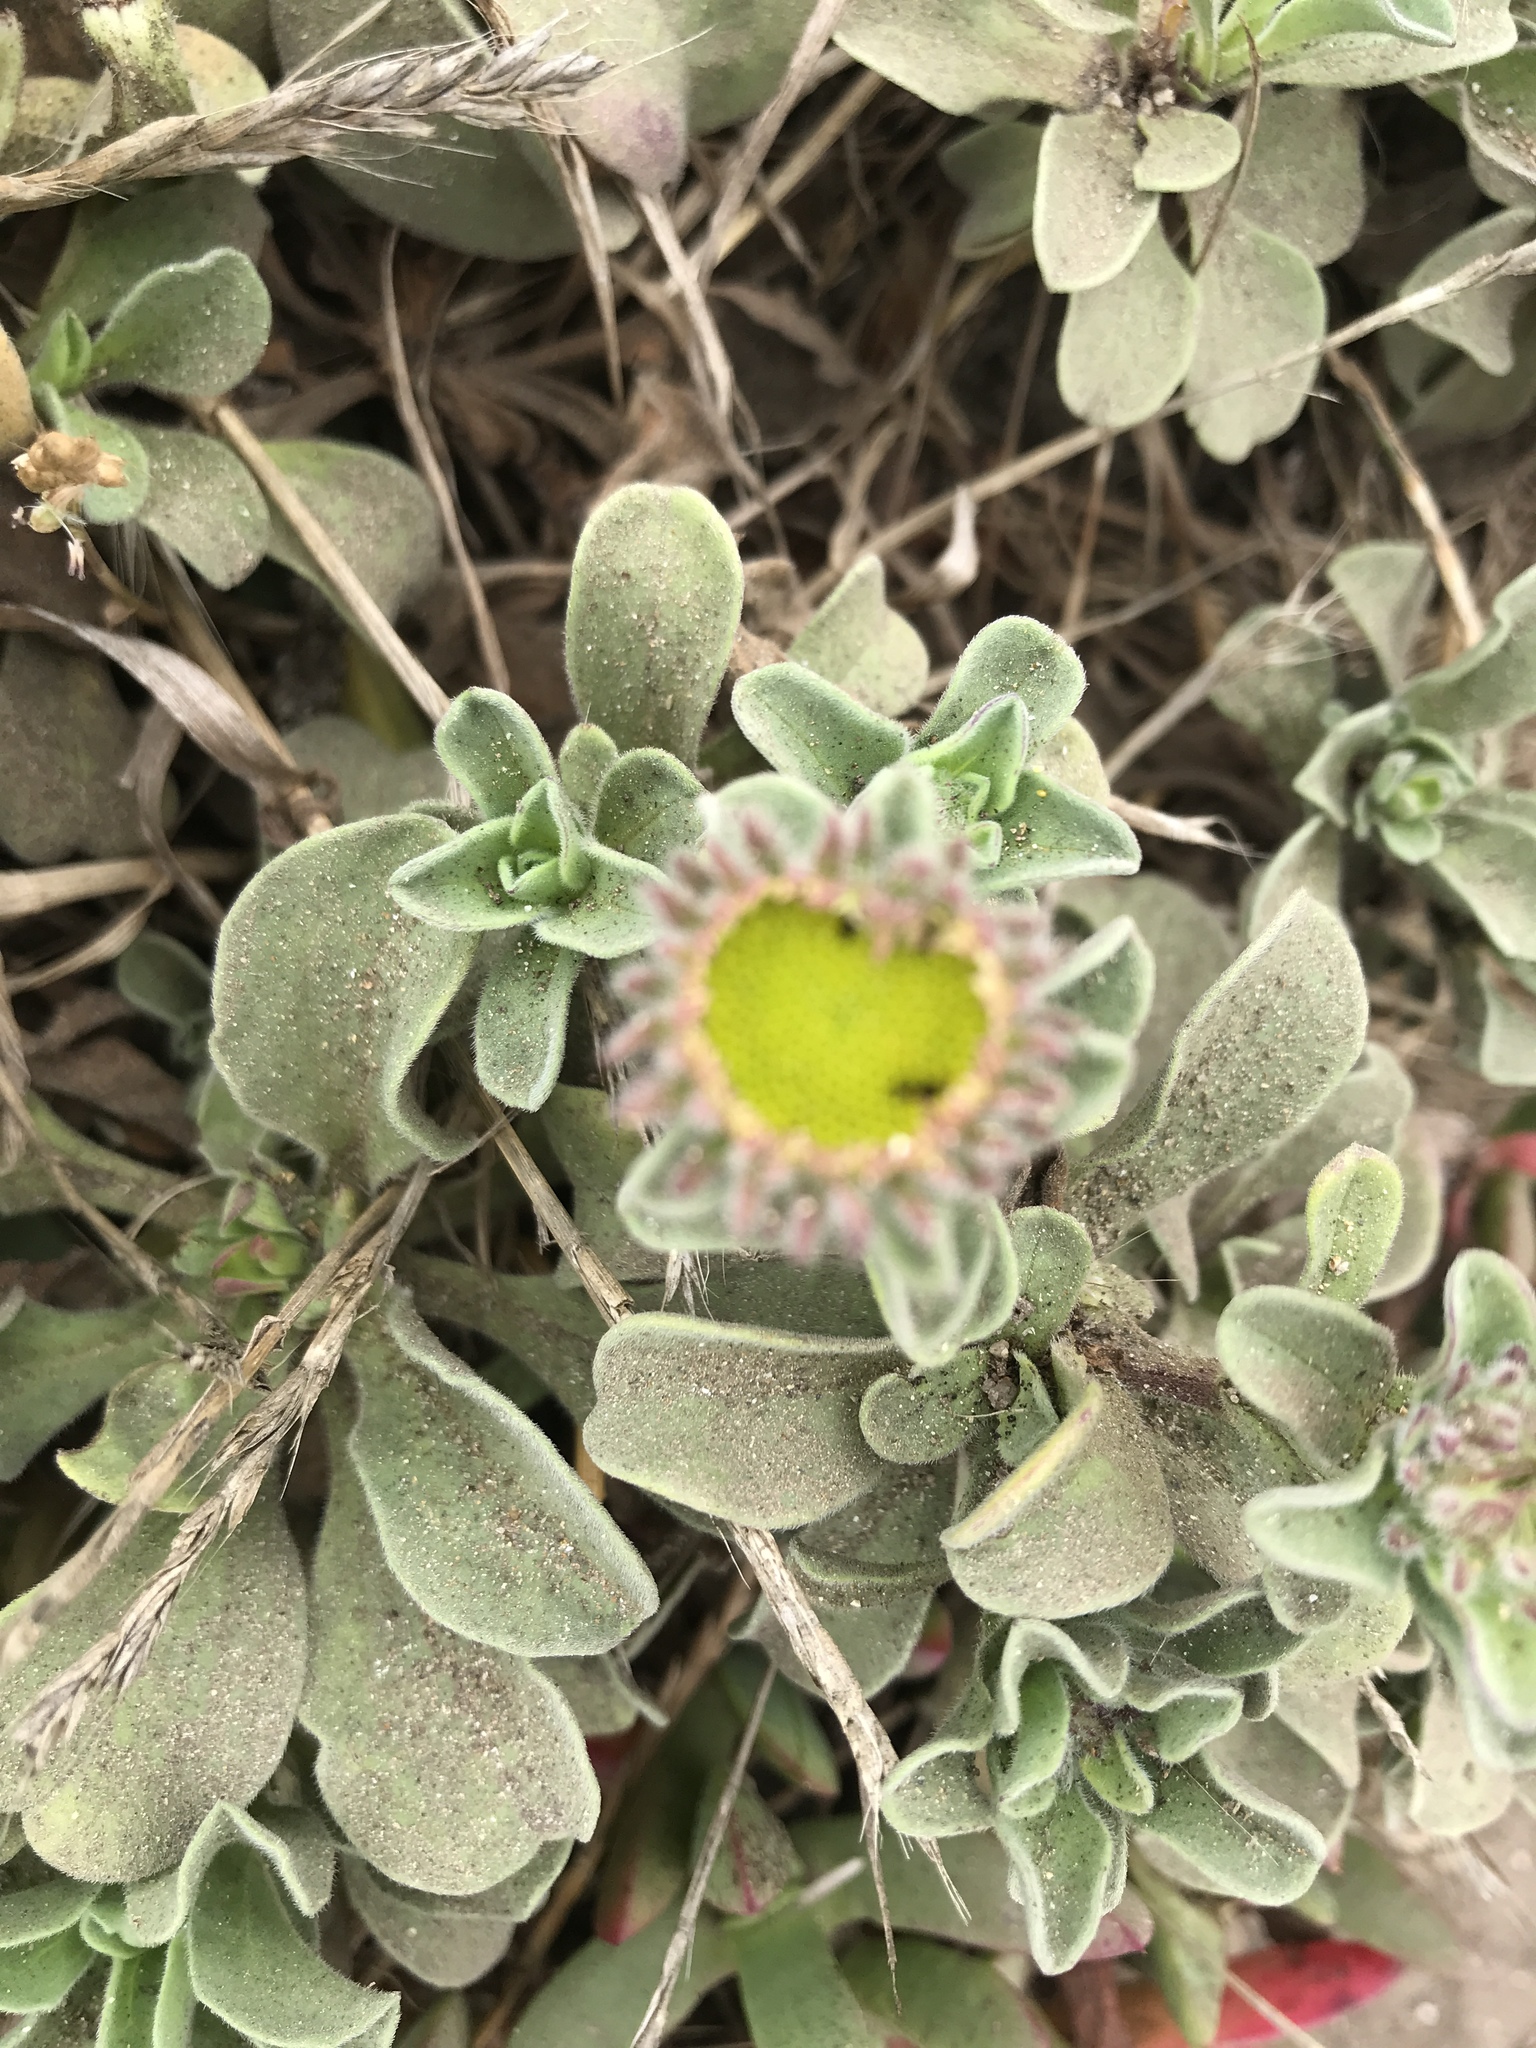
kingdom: Plantae
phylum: Tracheophyta
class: Magnoliopsida
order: Asterales
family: Asteraceae
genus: Erigeron
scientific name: Erigeron glaucus
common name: Seaside daisy
